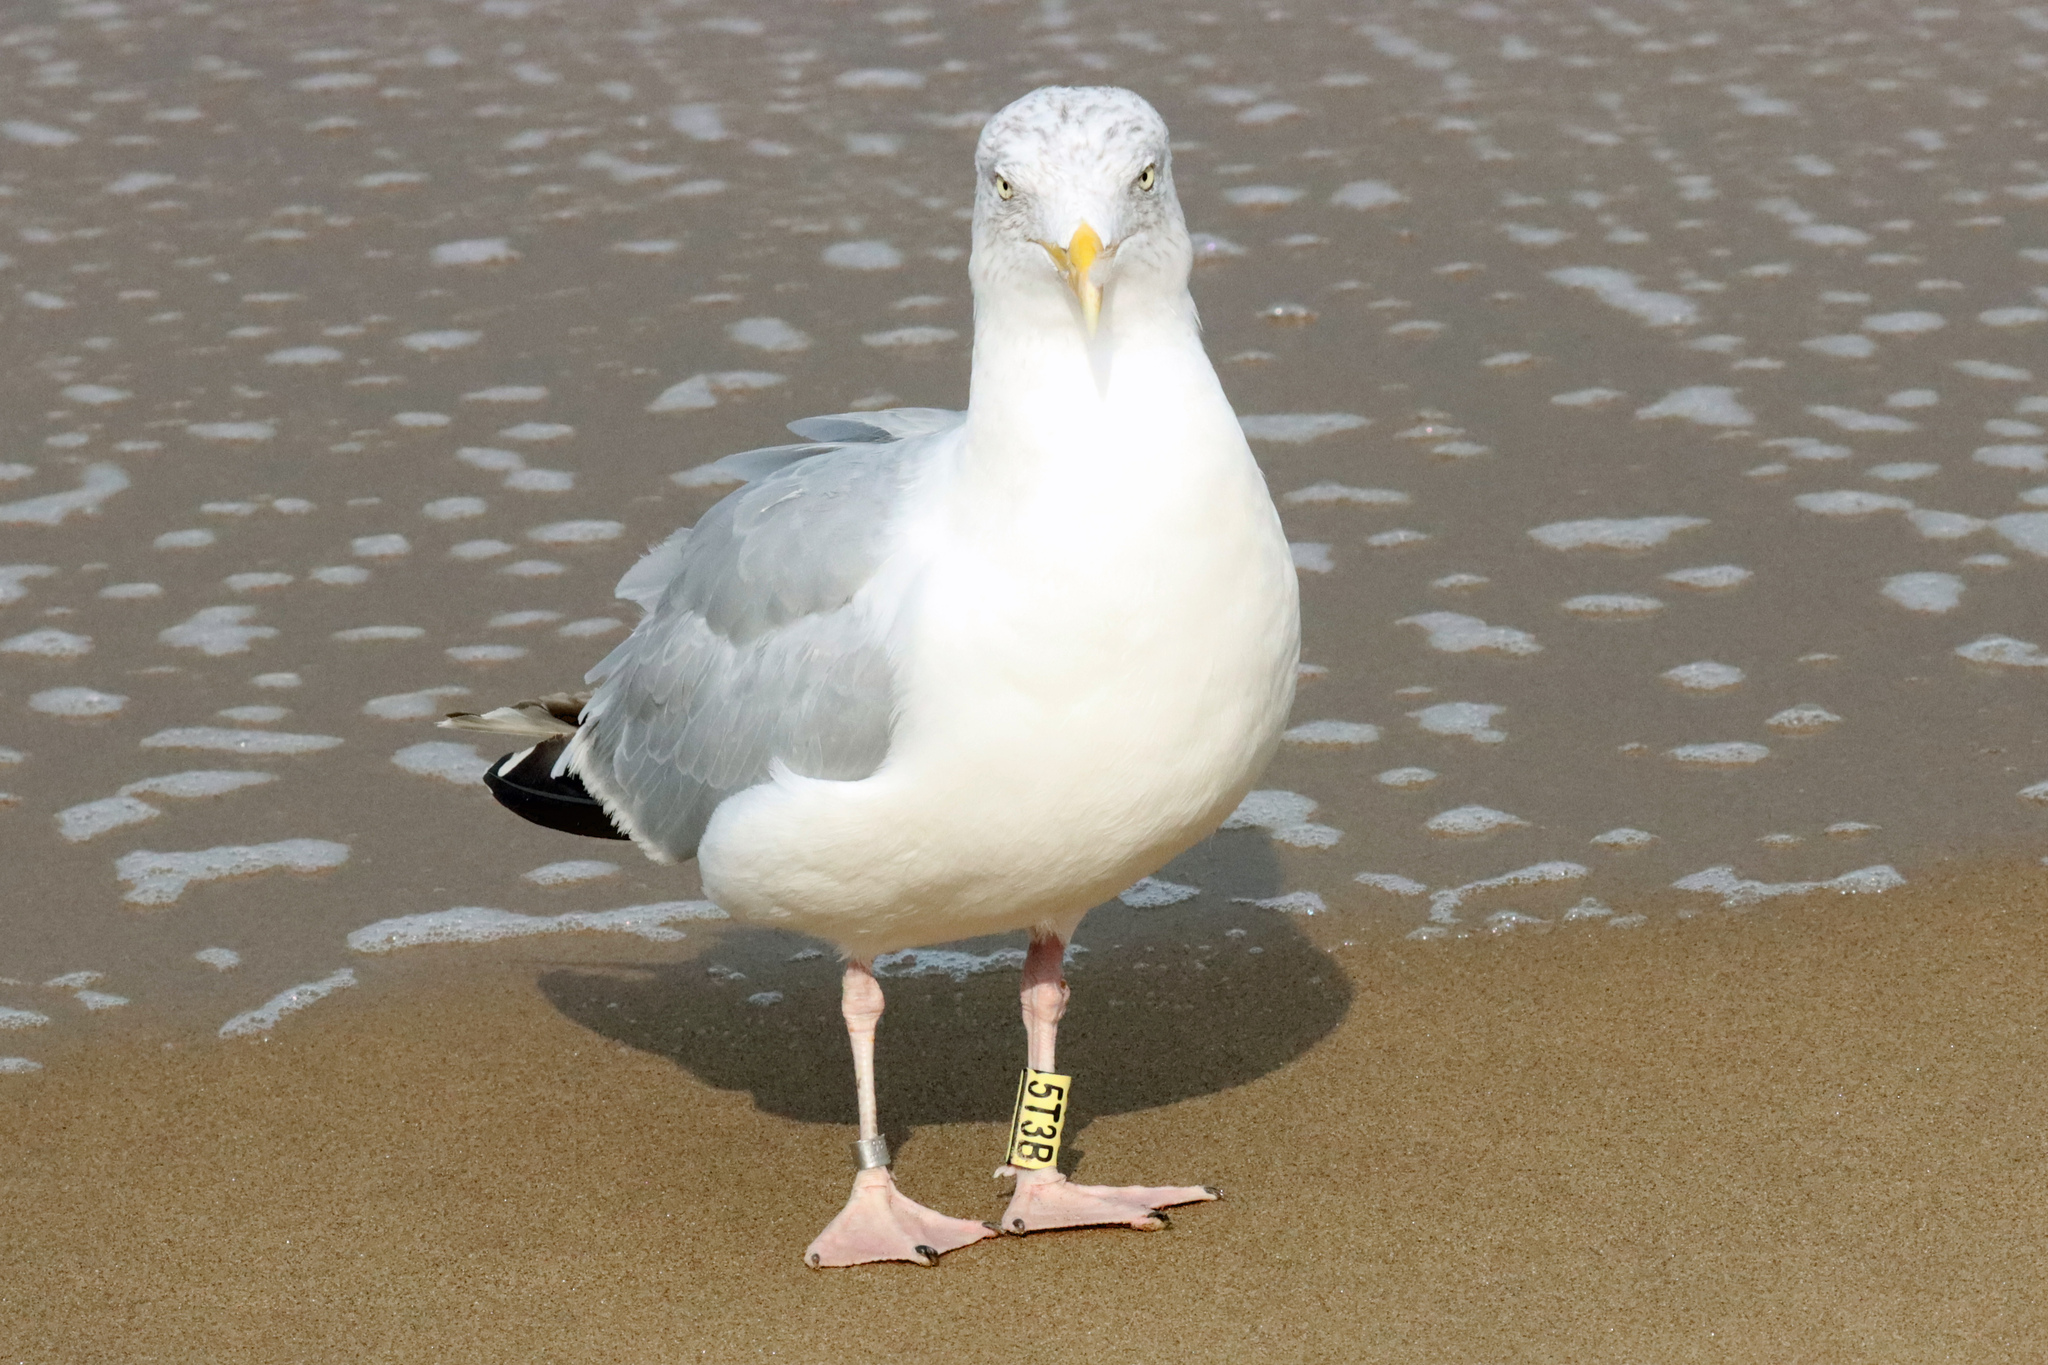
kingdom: Animalia
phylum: Chordata
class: Aves
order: Charadriiformes
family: Laridae
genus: Larus
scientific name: Larus argentatus
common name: Herring gull
